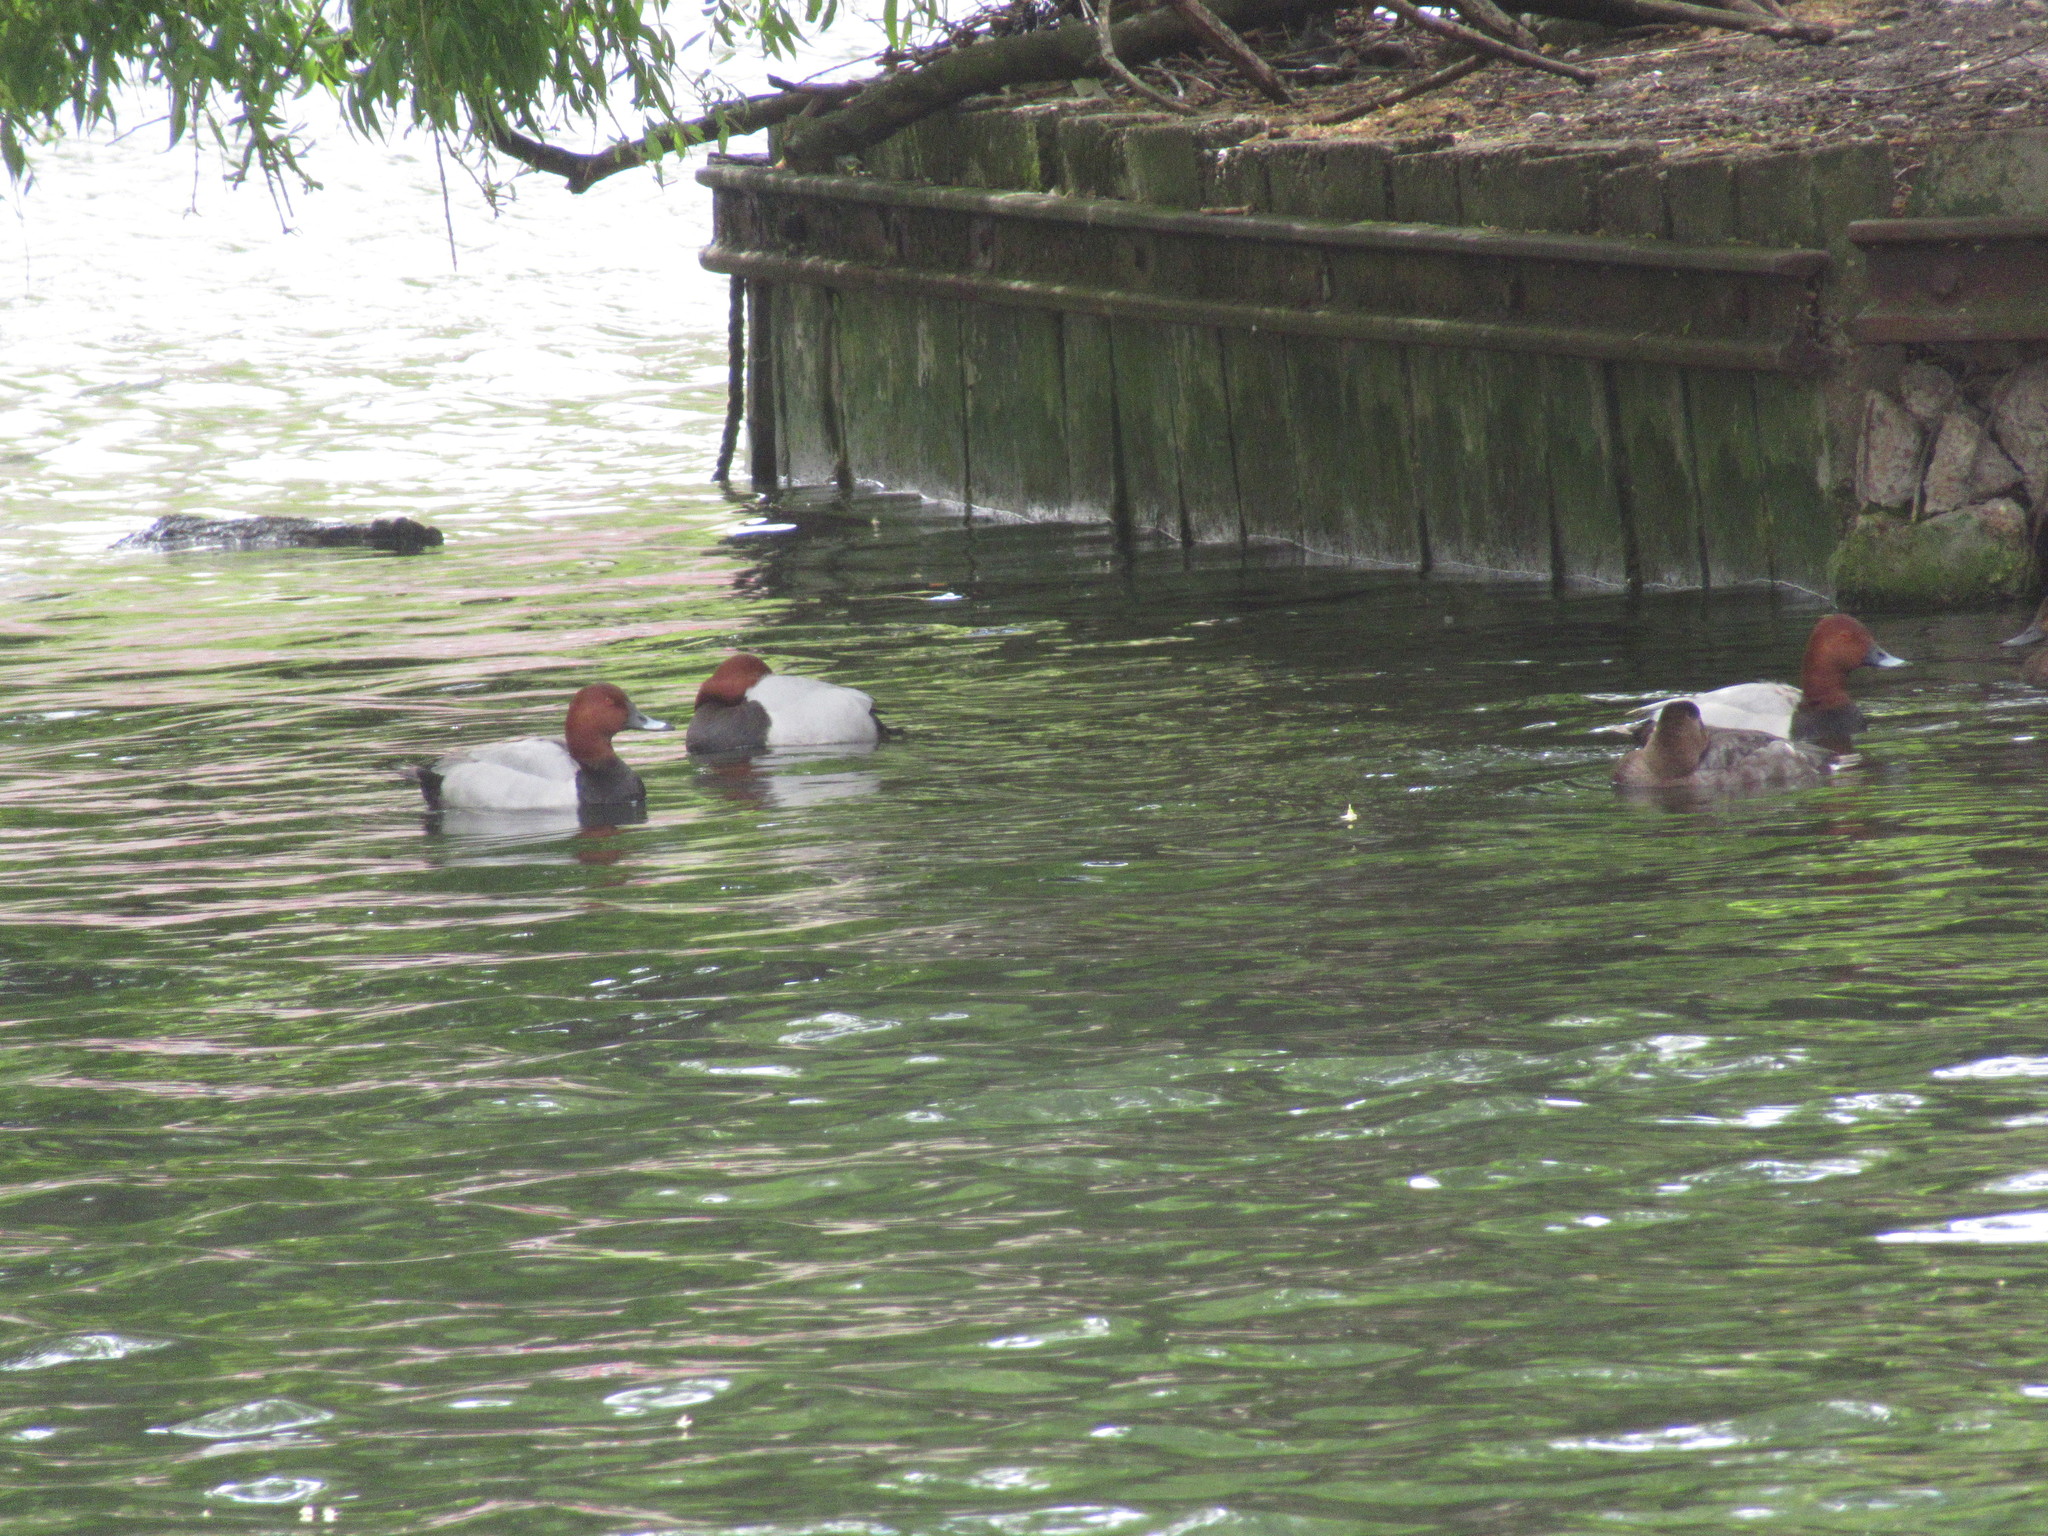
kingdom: Animalia
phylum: Chordata
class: Aves
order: Anseriformes
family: Anatidae
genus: Aythya
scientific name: Aythya ferina
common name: Common pochard
